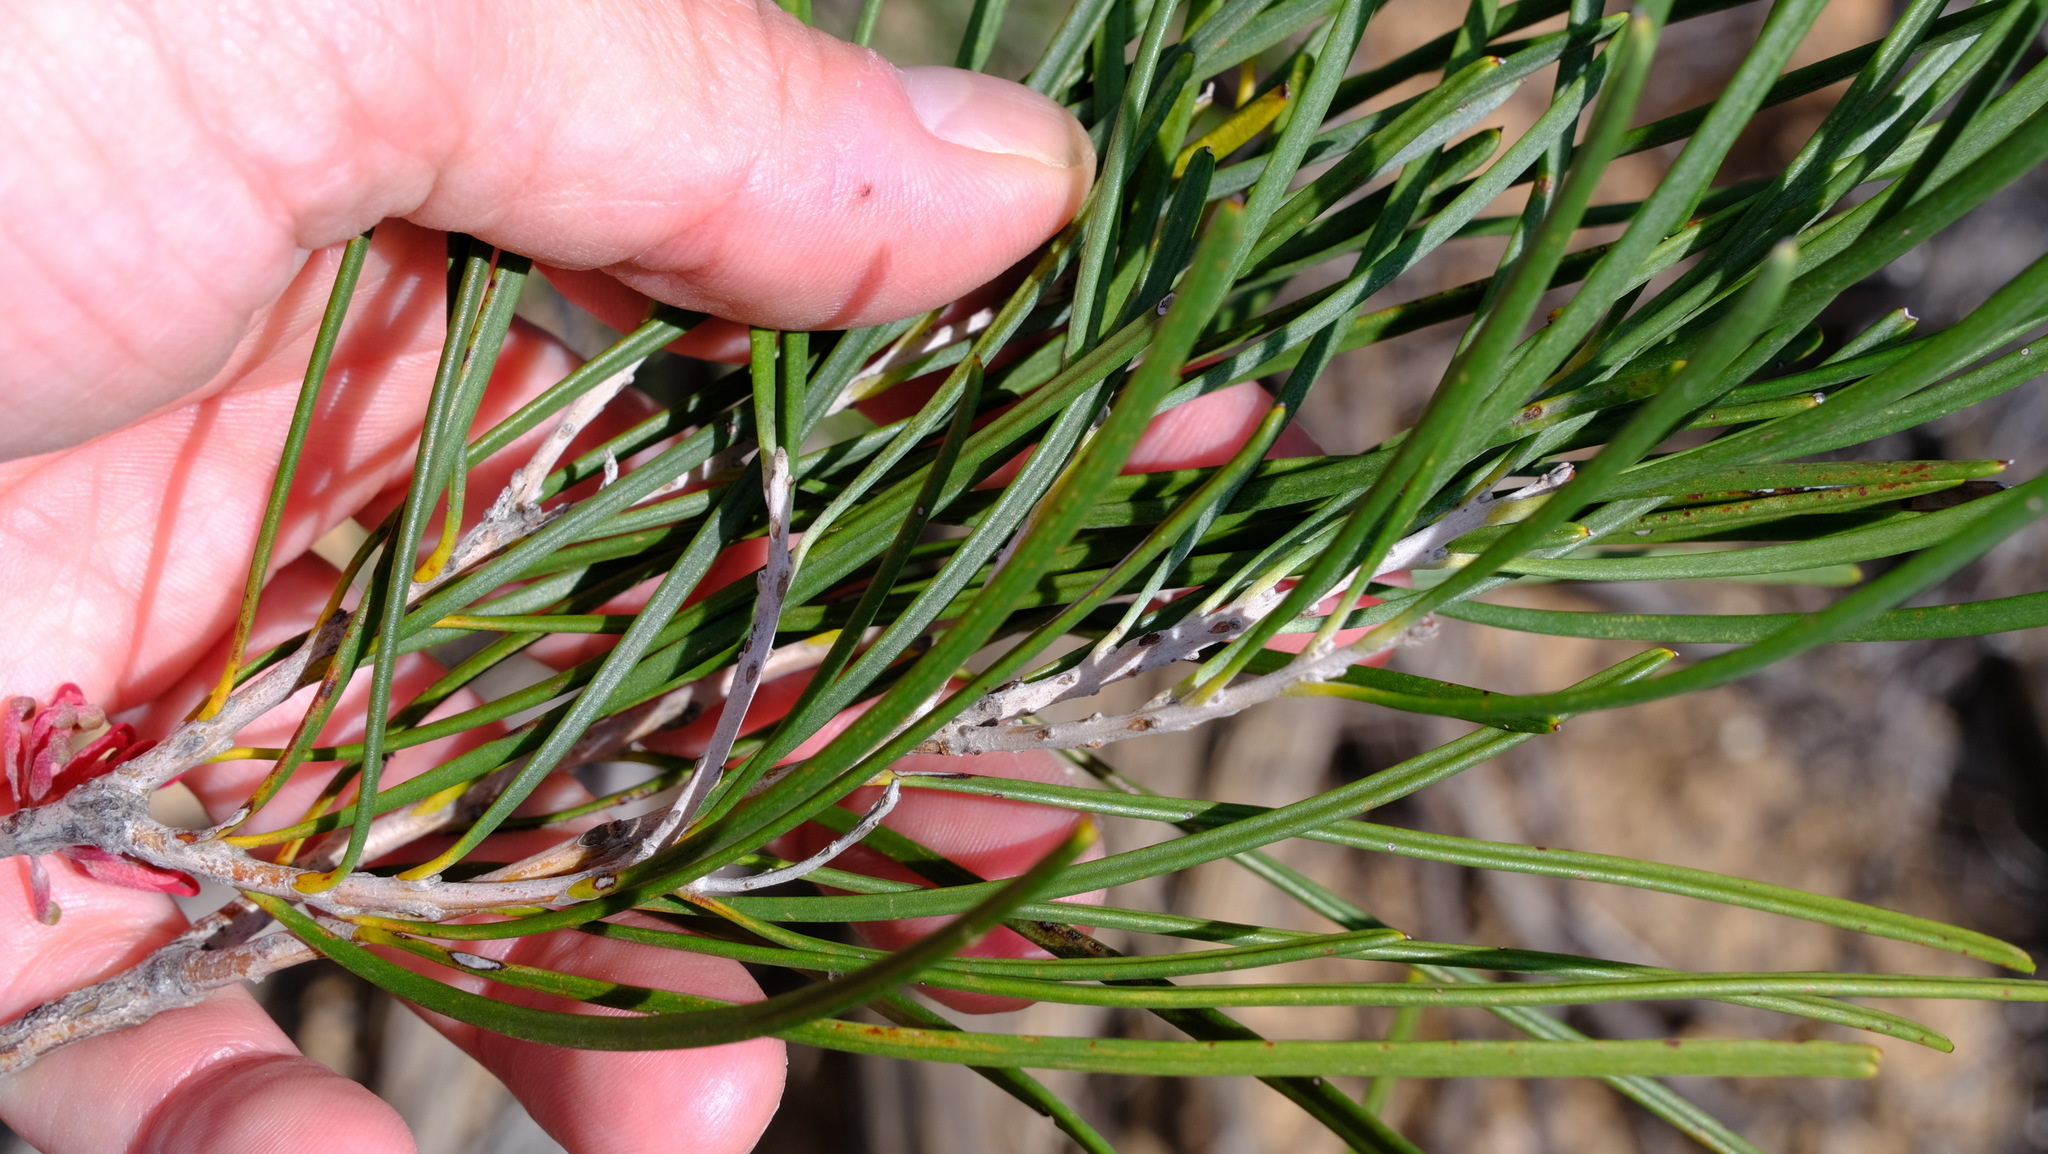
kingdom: Plantae
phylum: Tracheophyta
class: Magnoliopsida
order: Proteales
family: Proteaceae
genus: Hakea
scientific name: Hakea orthorrhyncha
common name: Bird beak hakea
